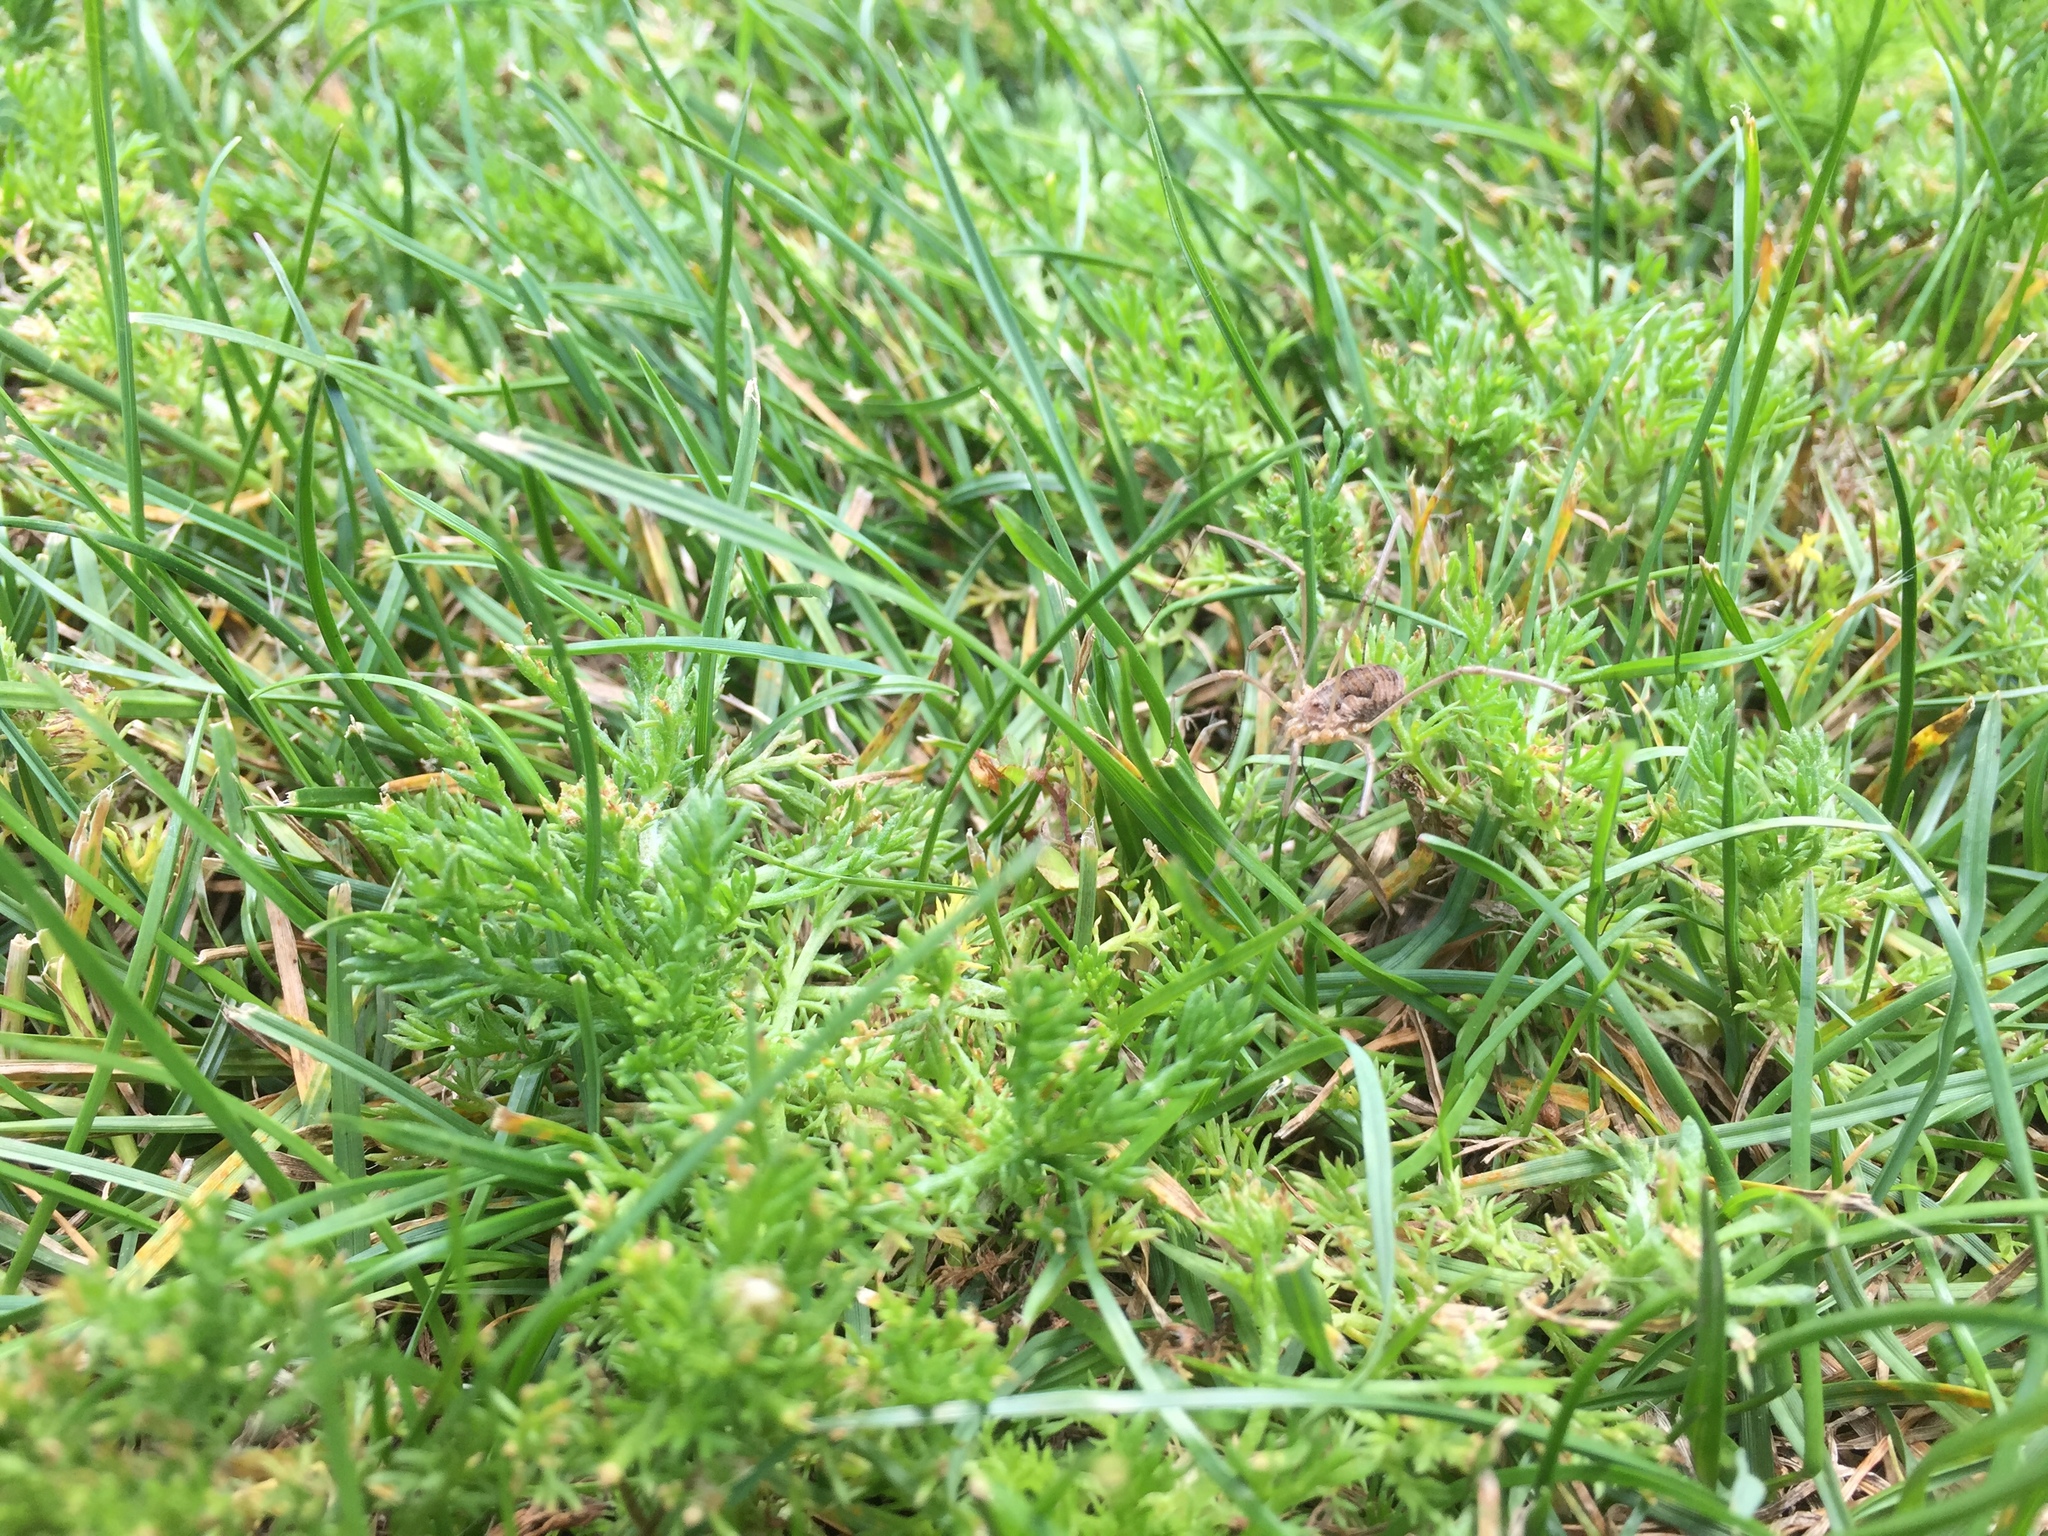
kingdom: Animalia
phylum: Arthropoda
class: Arachnida
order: Opiliones
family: Phalangiidae
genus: Phalangium
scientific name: Phalangium opilio
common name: Daddy longleg
